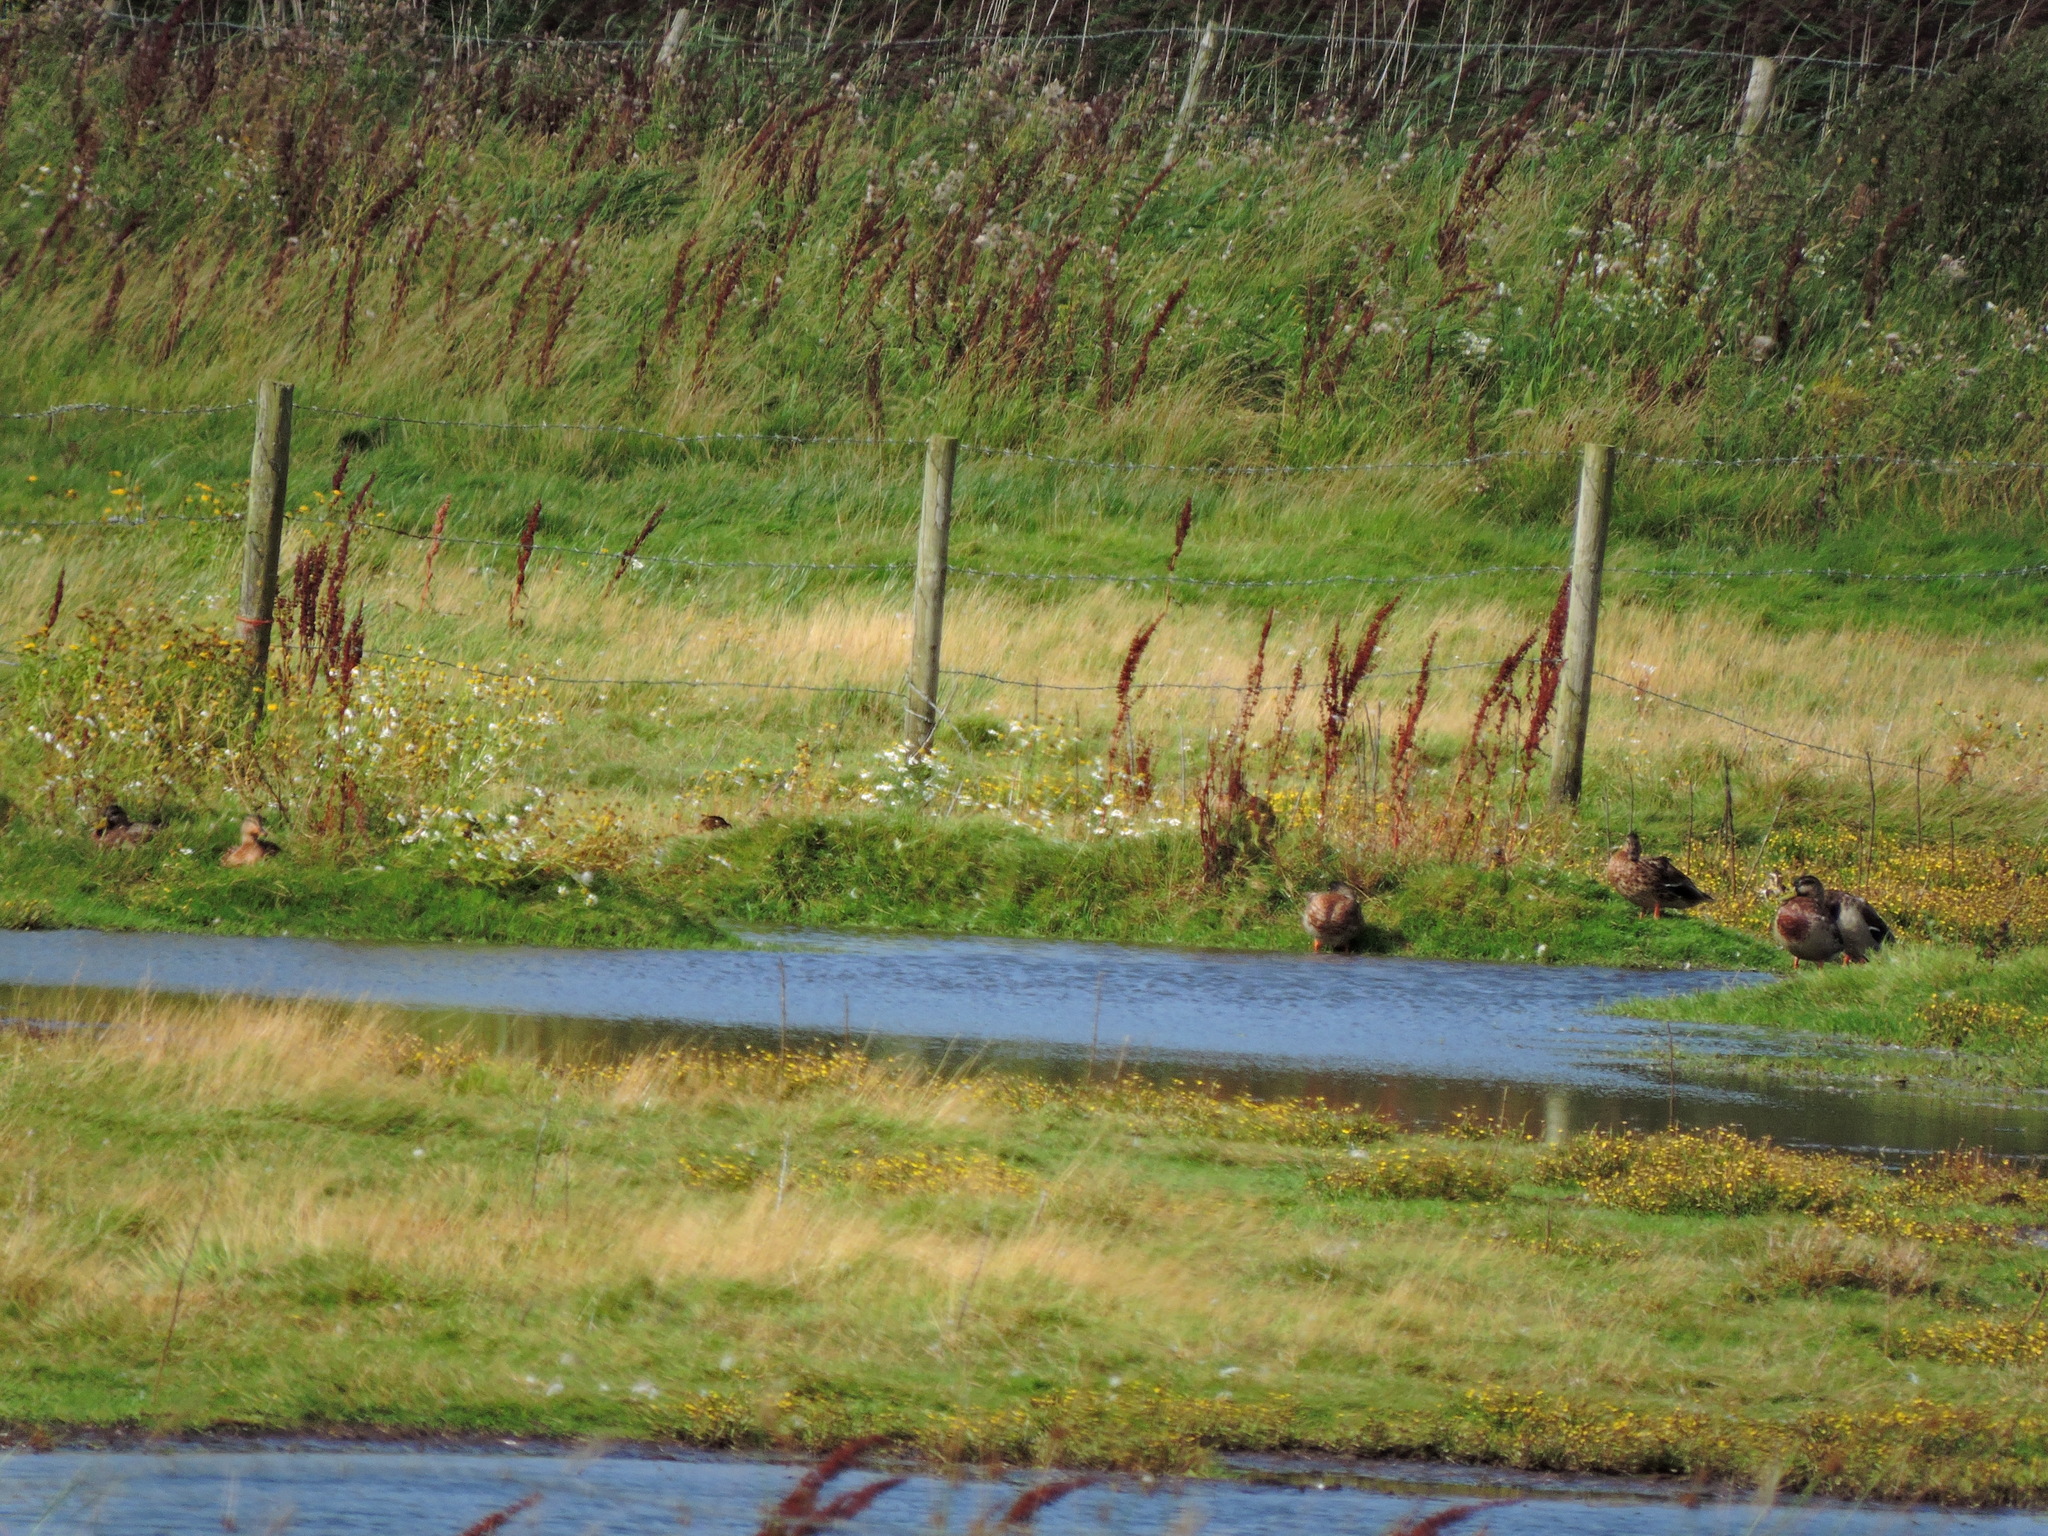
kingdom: Animalia
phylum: Chordata
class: Aves
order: Anseriformes
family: Anatidae
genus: Anas
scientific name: Anas platyrhynchos
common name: Mallard
